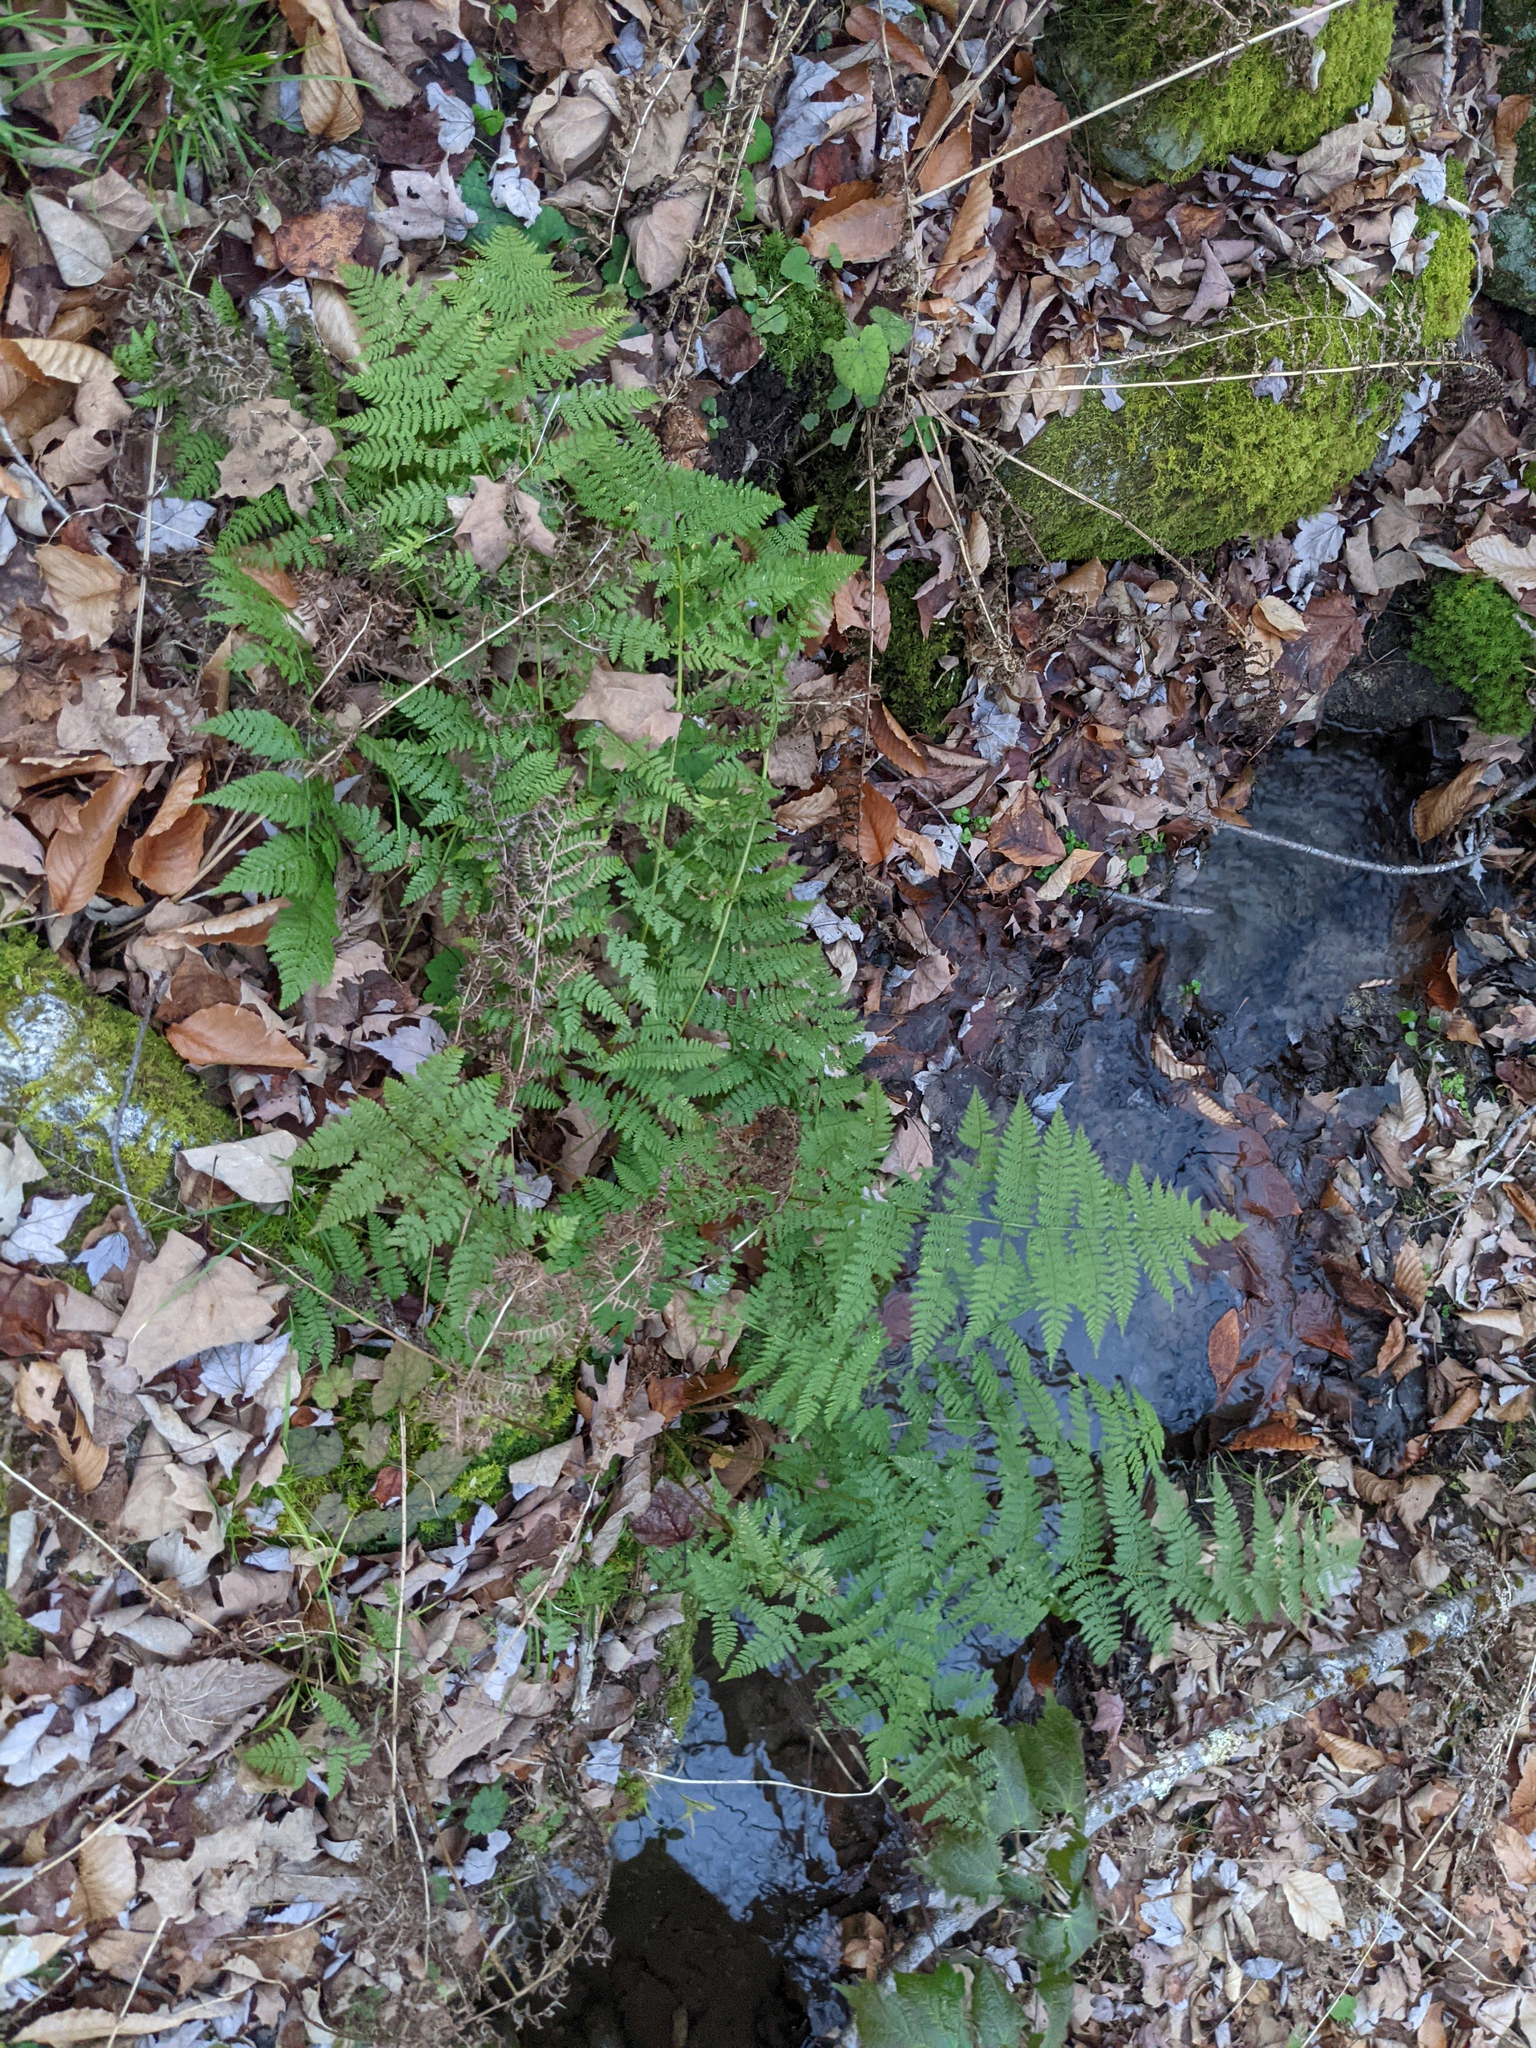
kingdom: Plantae
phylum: Tracheophyta
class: Polypodiopsida
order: Polypodiales
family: Dryopteridaceae
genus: Dryopteris
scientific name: Dryopteris intermedia
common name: Evergreen wood fern
